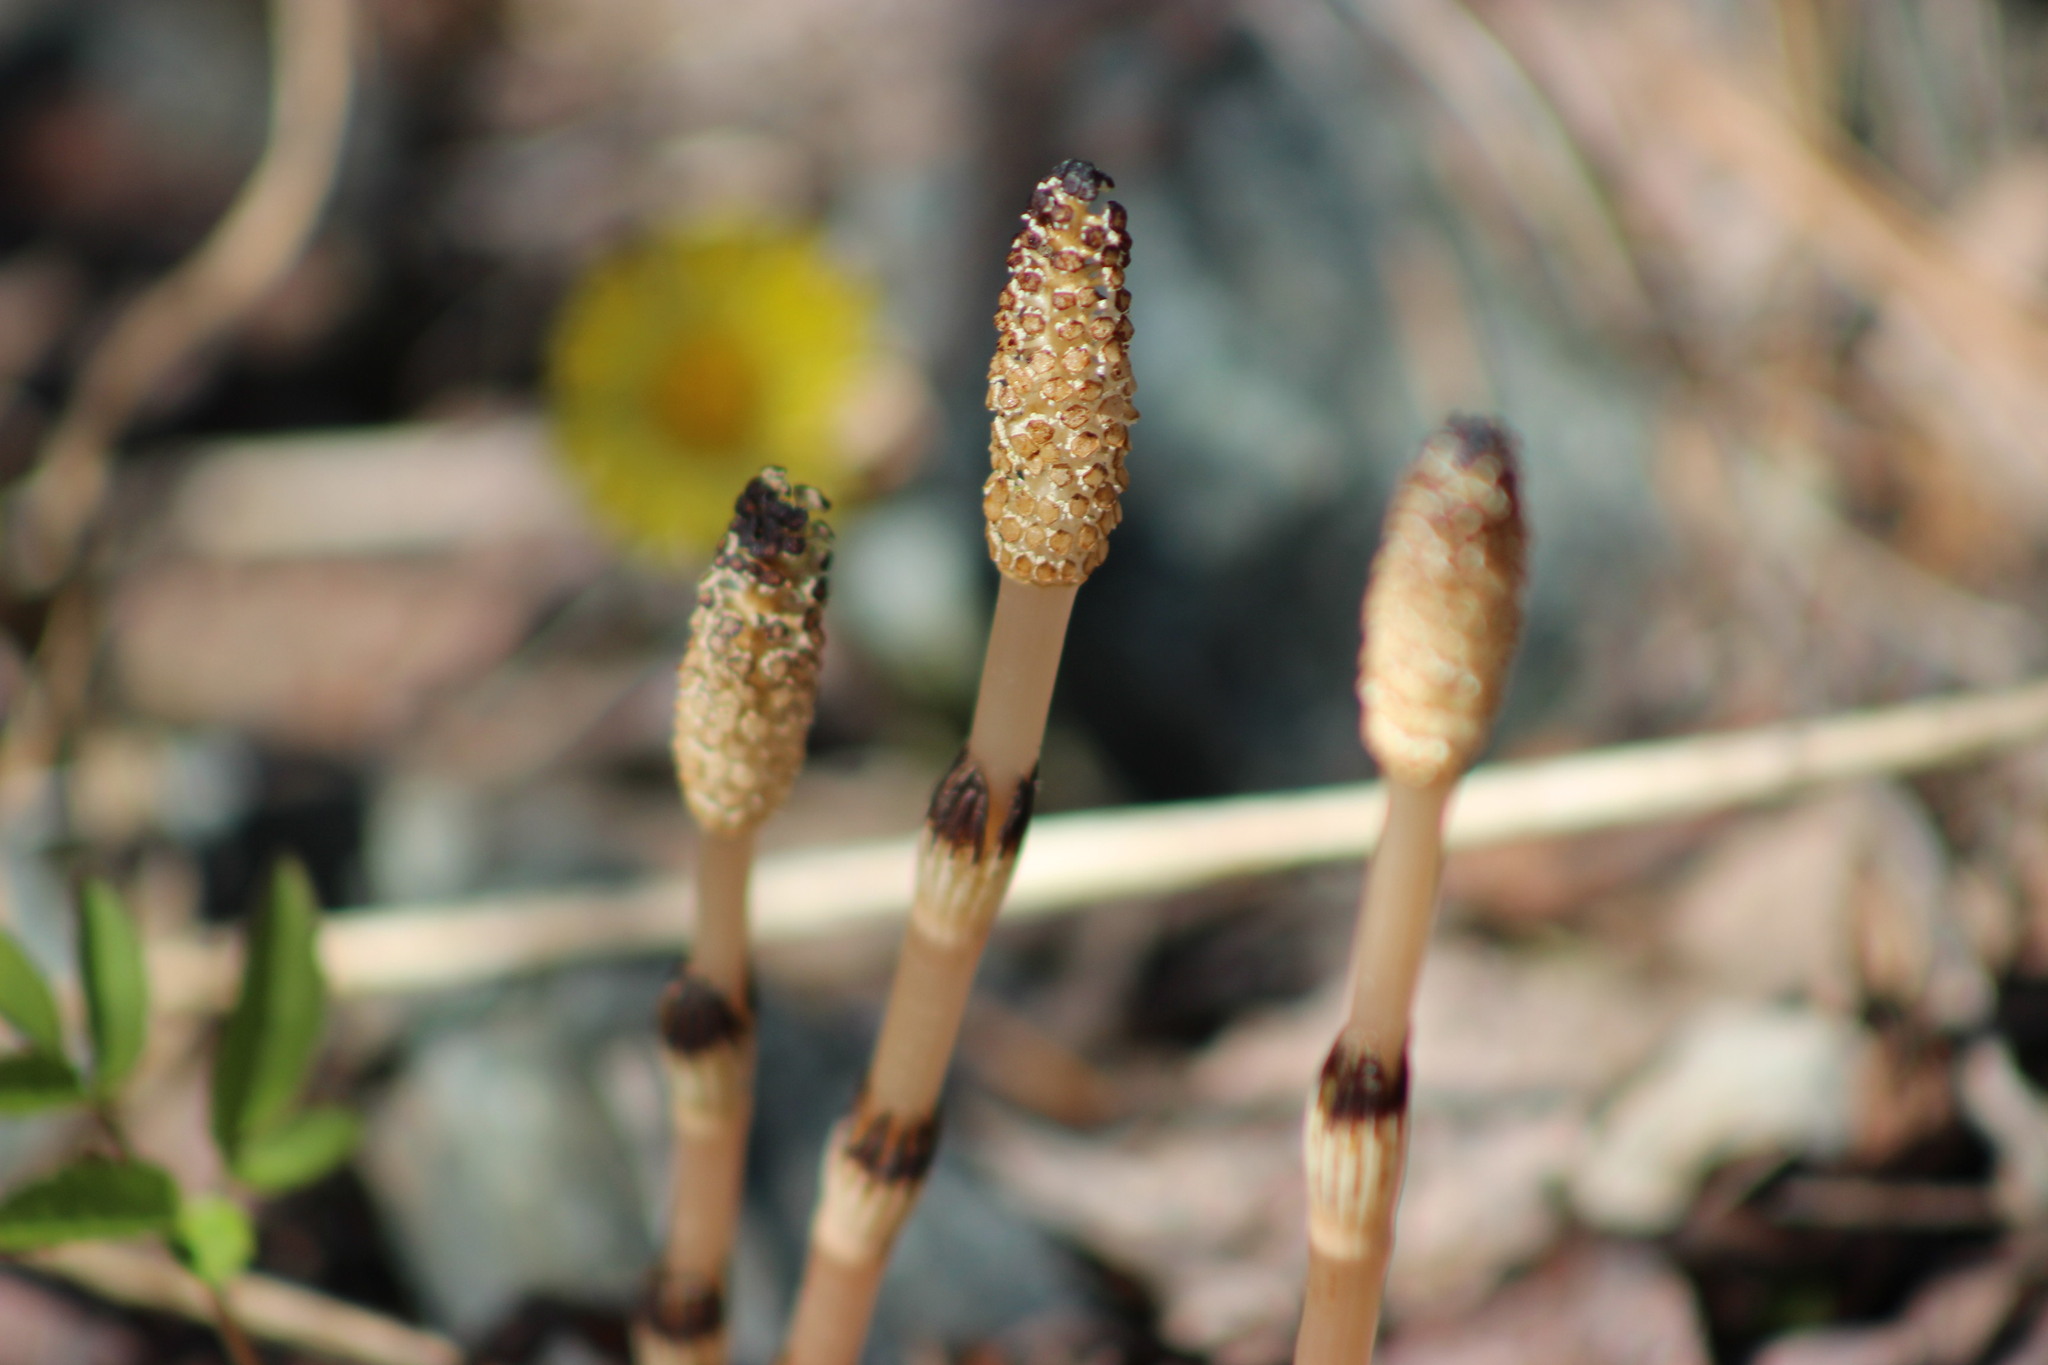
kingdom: Plantae
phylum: Tracheophyta
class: Polypodiopsida
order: Equisetales
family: Equisetaceae
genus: Equisetum
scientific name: Equisetum arvense
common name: Field horsetail
